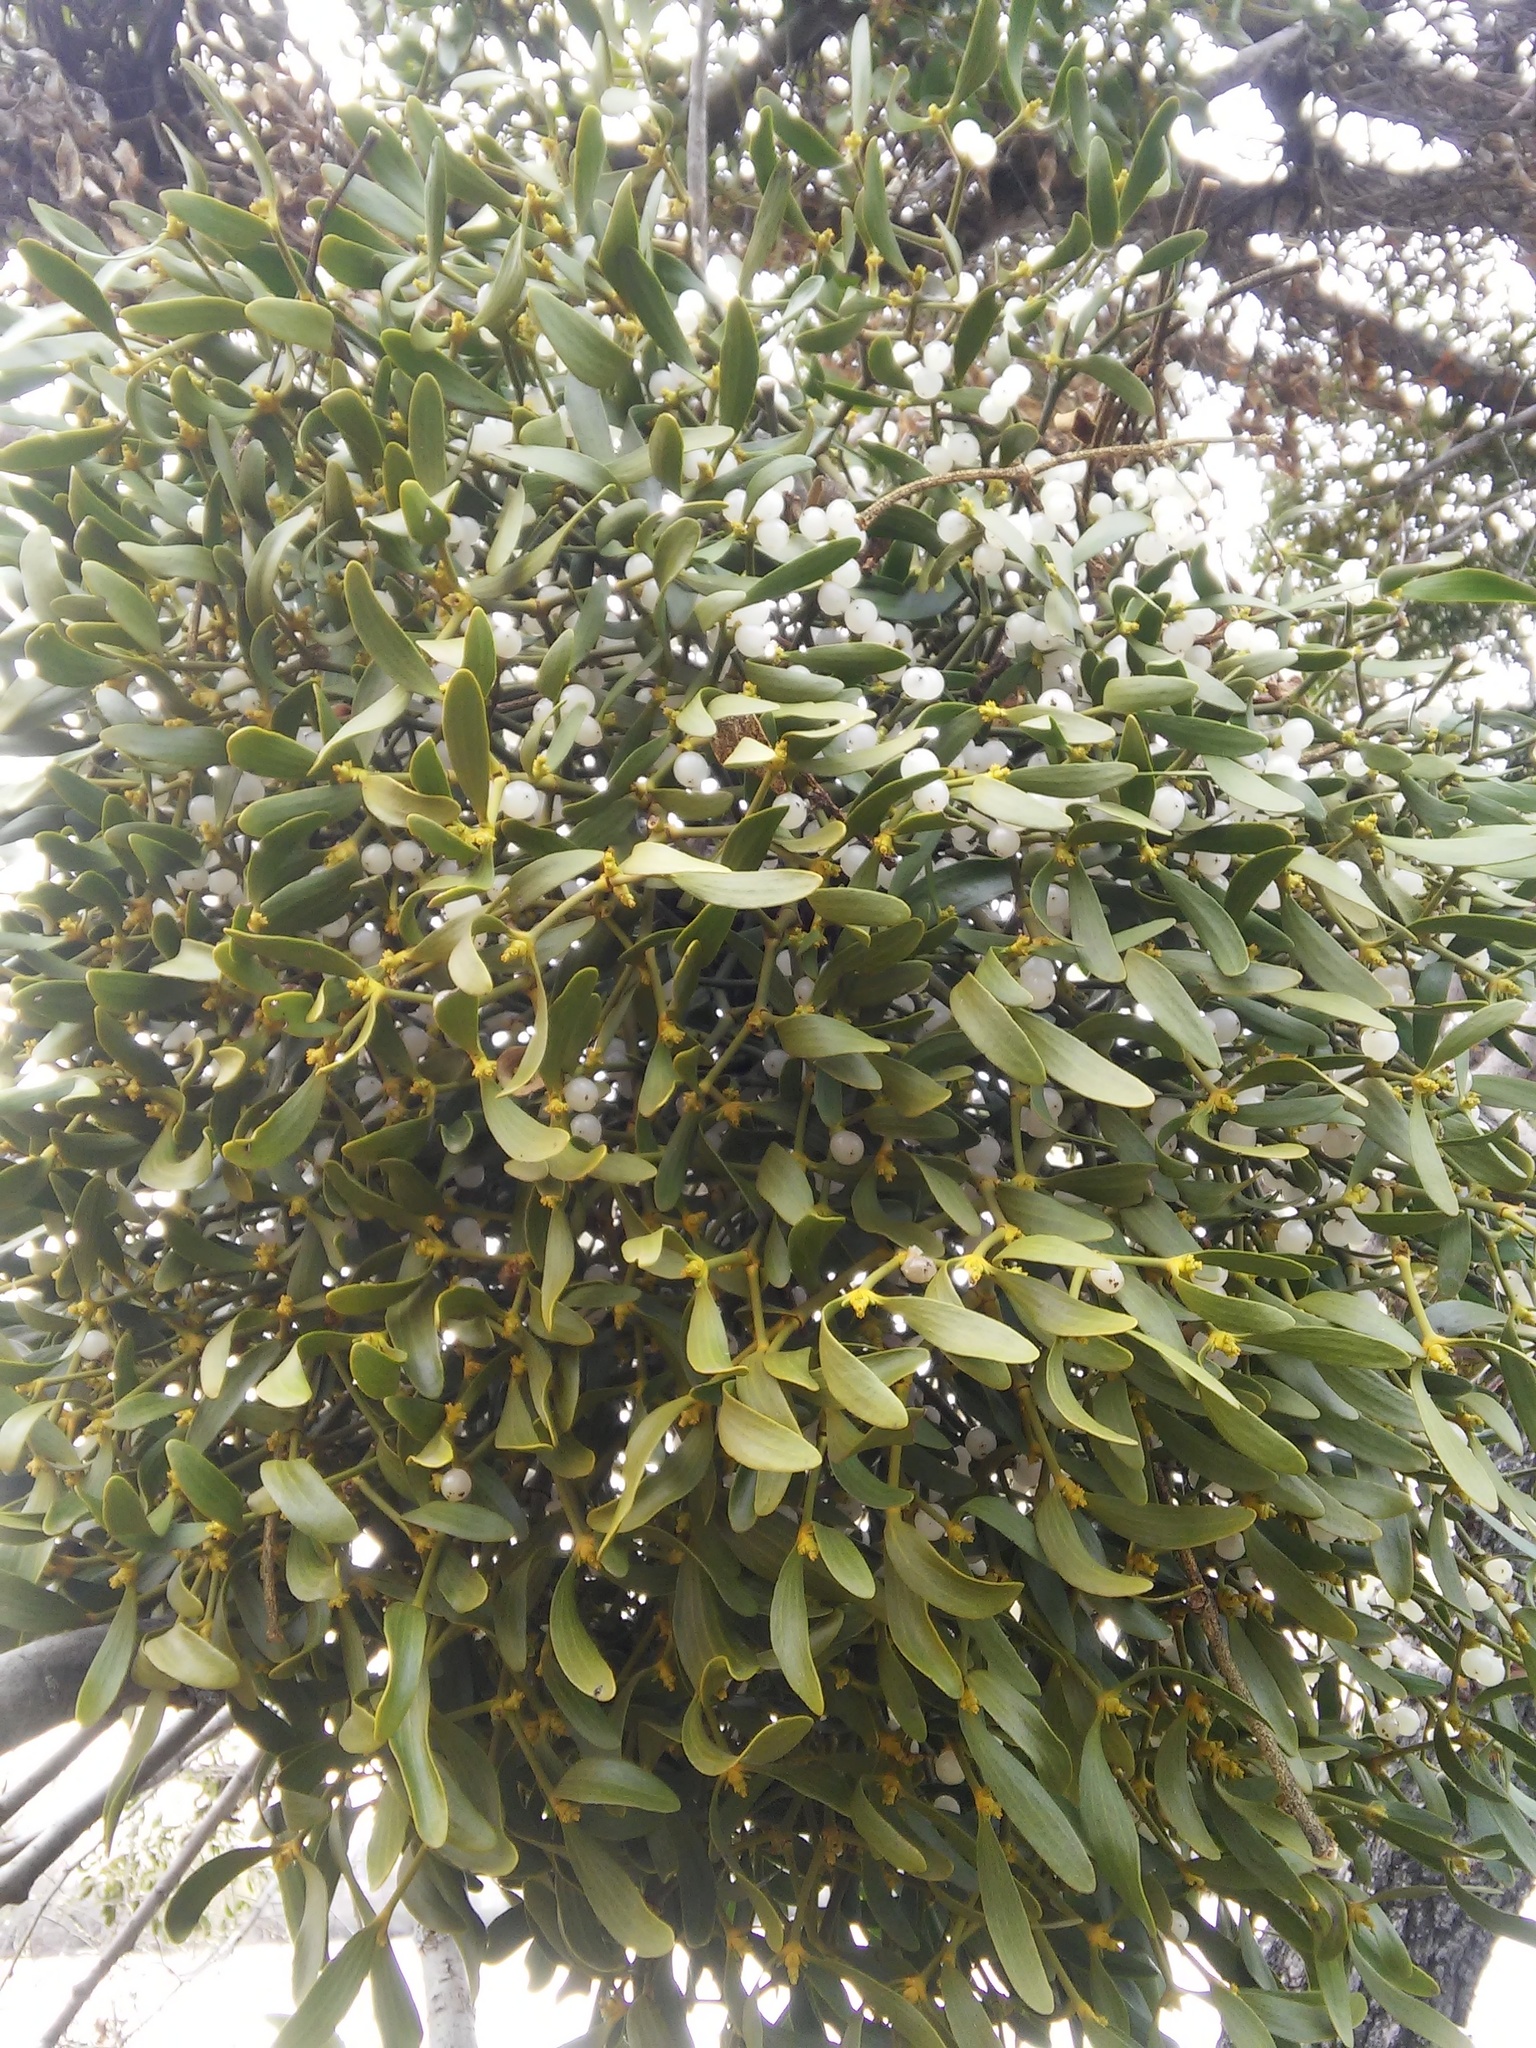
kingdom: Plantae
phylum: Tracheophyta
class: Magnoliopsida
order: Santalales
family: Viscaceae
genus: Viscum
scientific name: Viscum album
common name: Mistletoe
